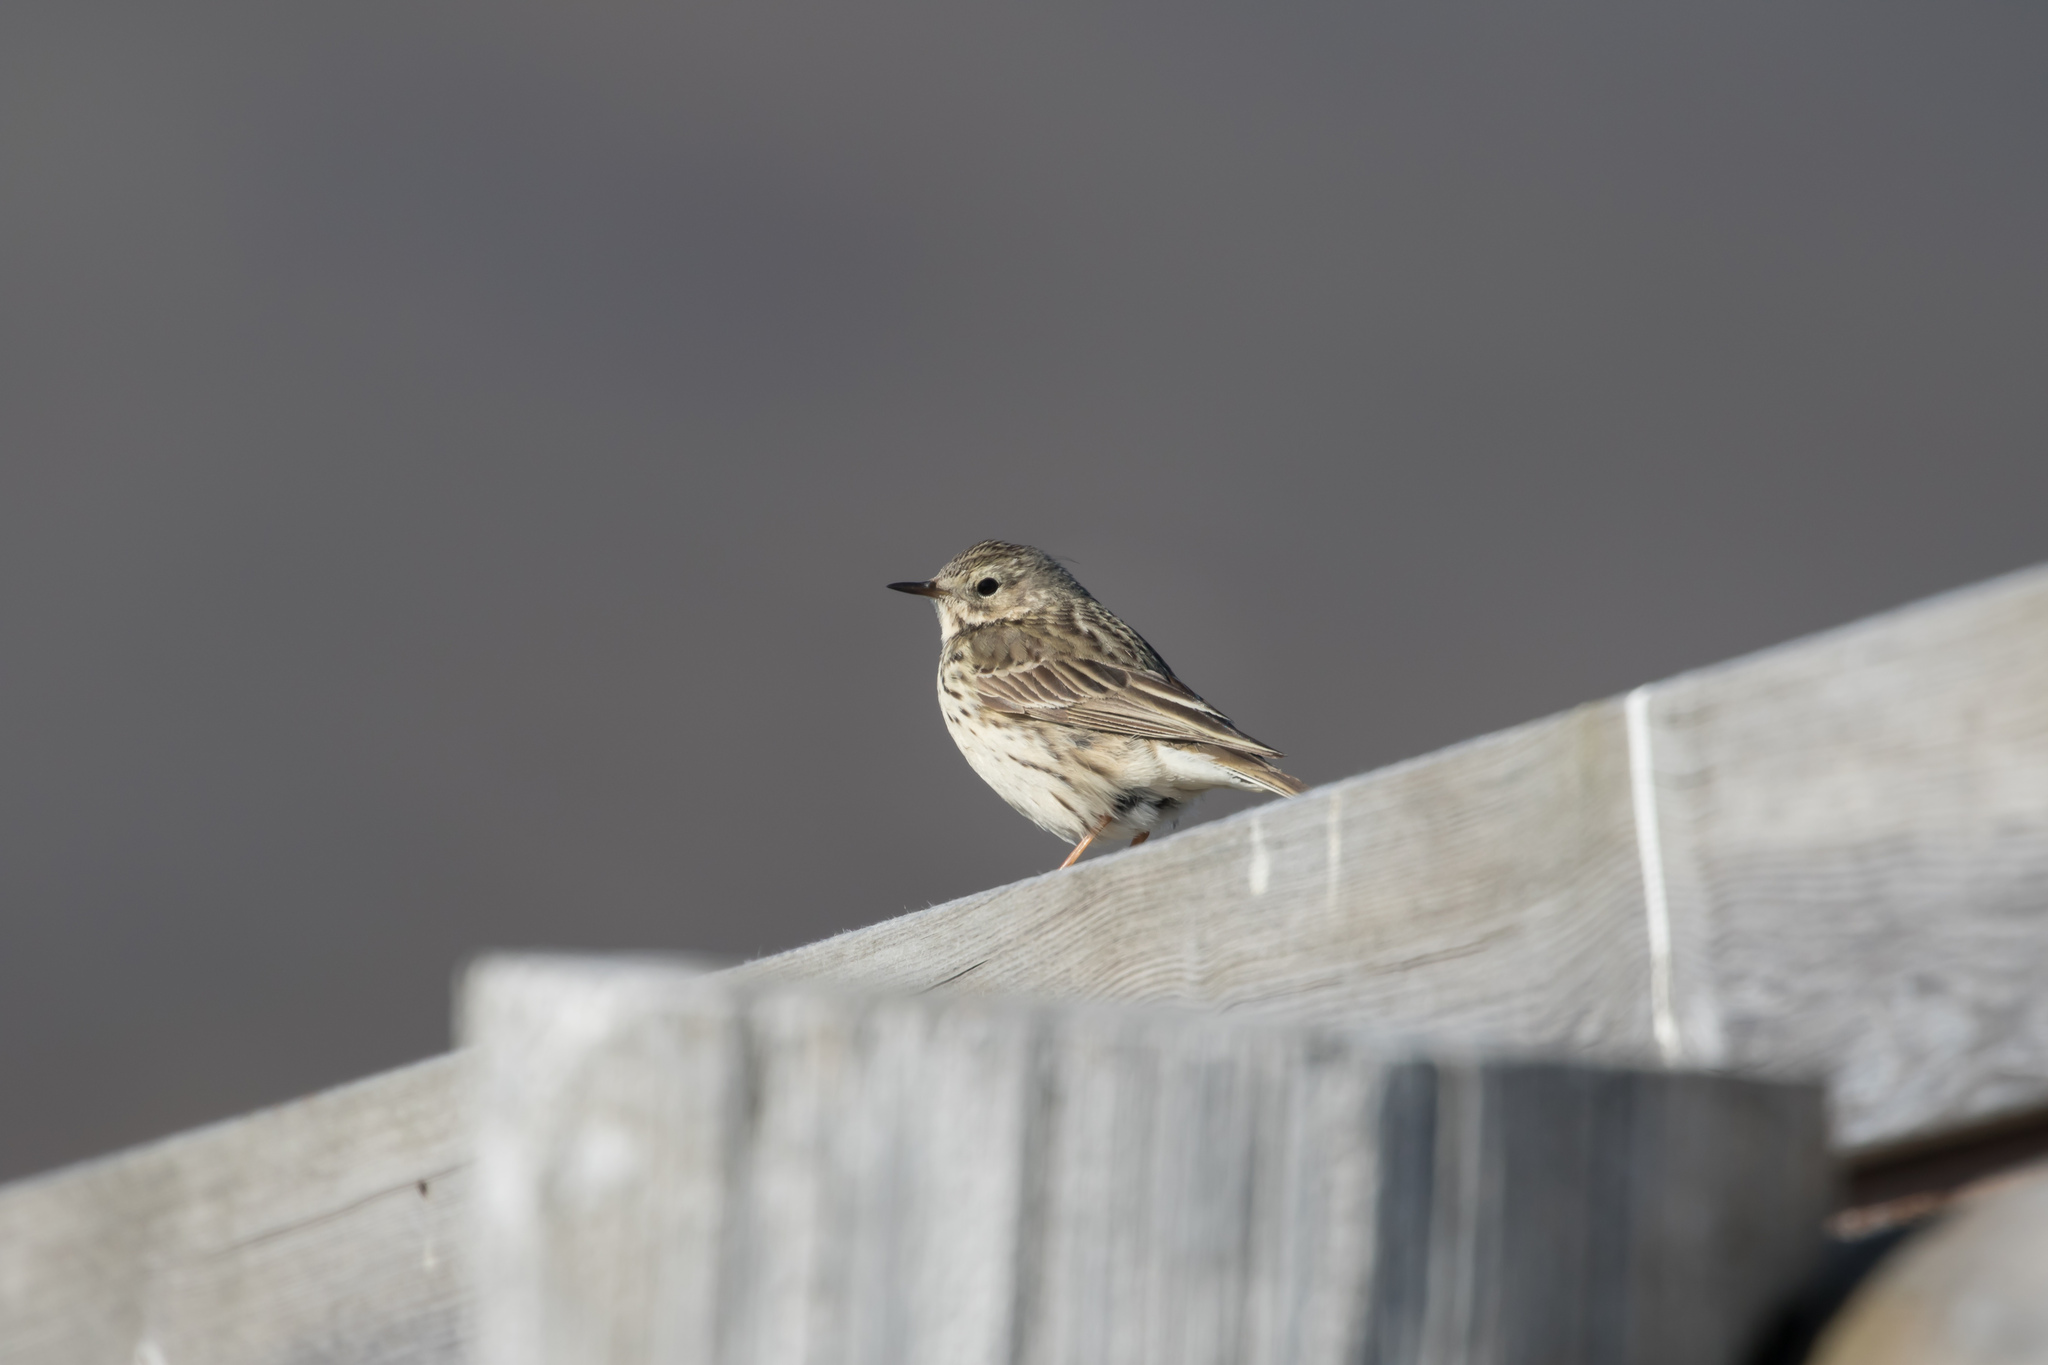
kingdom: Animalia
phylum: Chordata
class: Aves
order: Passeriformes
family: Motacillidae
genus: Anthus
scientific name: Anthus pratensis
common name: Meadow pipit
